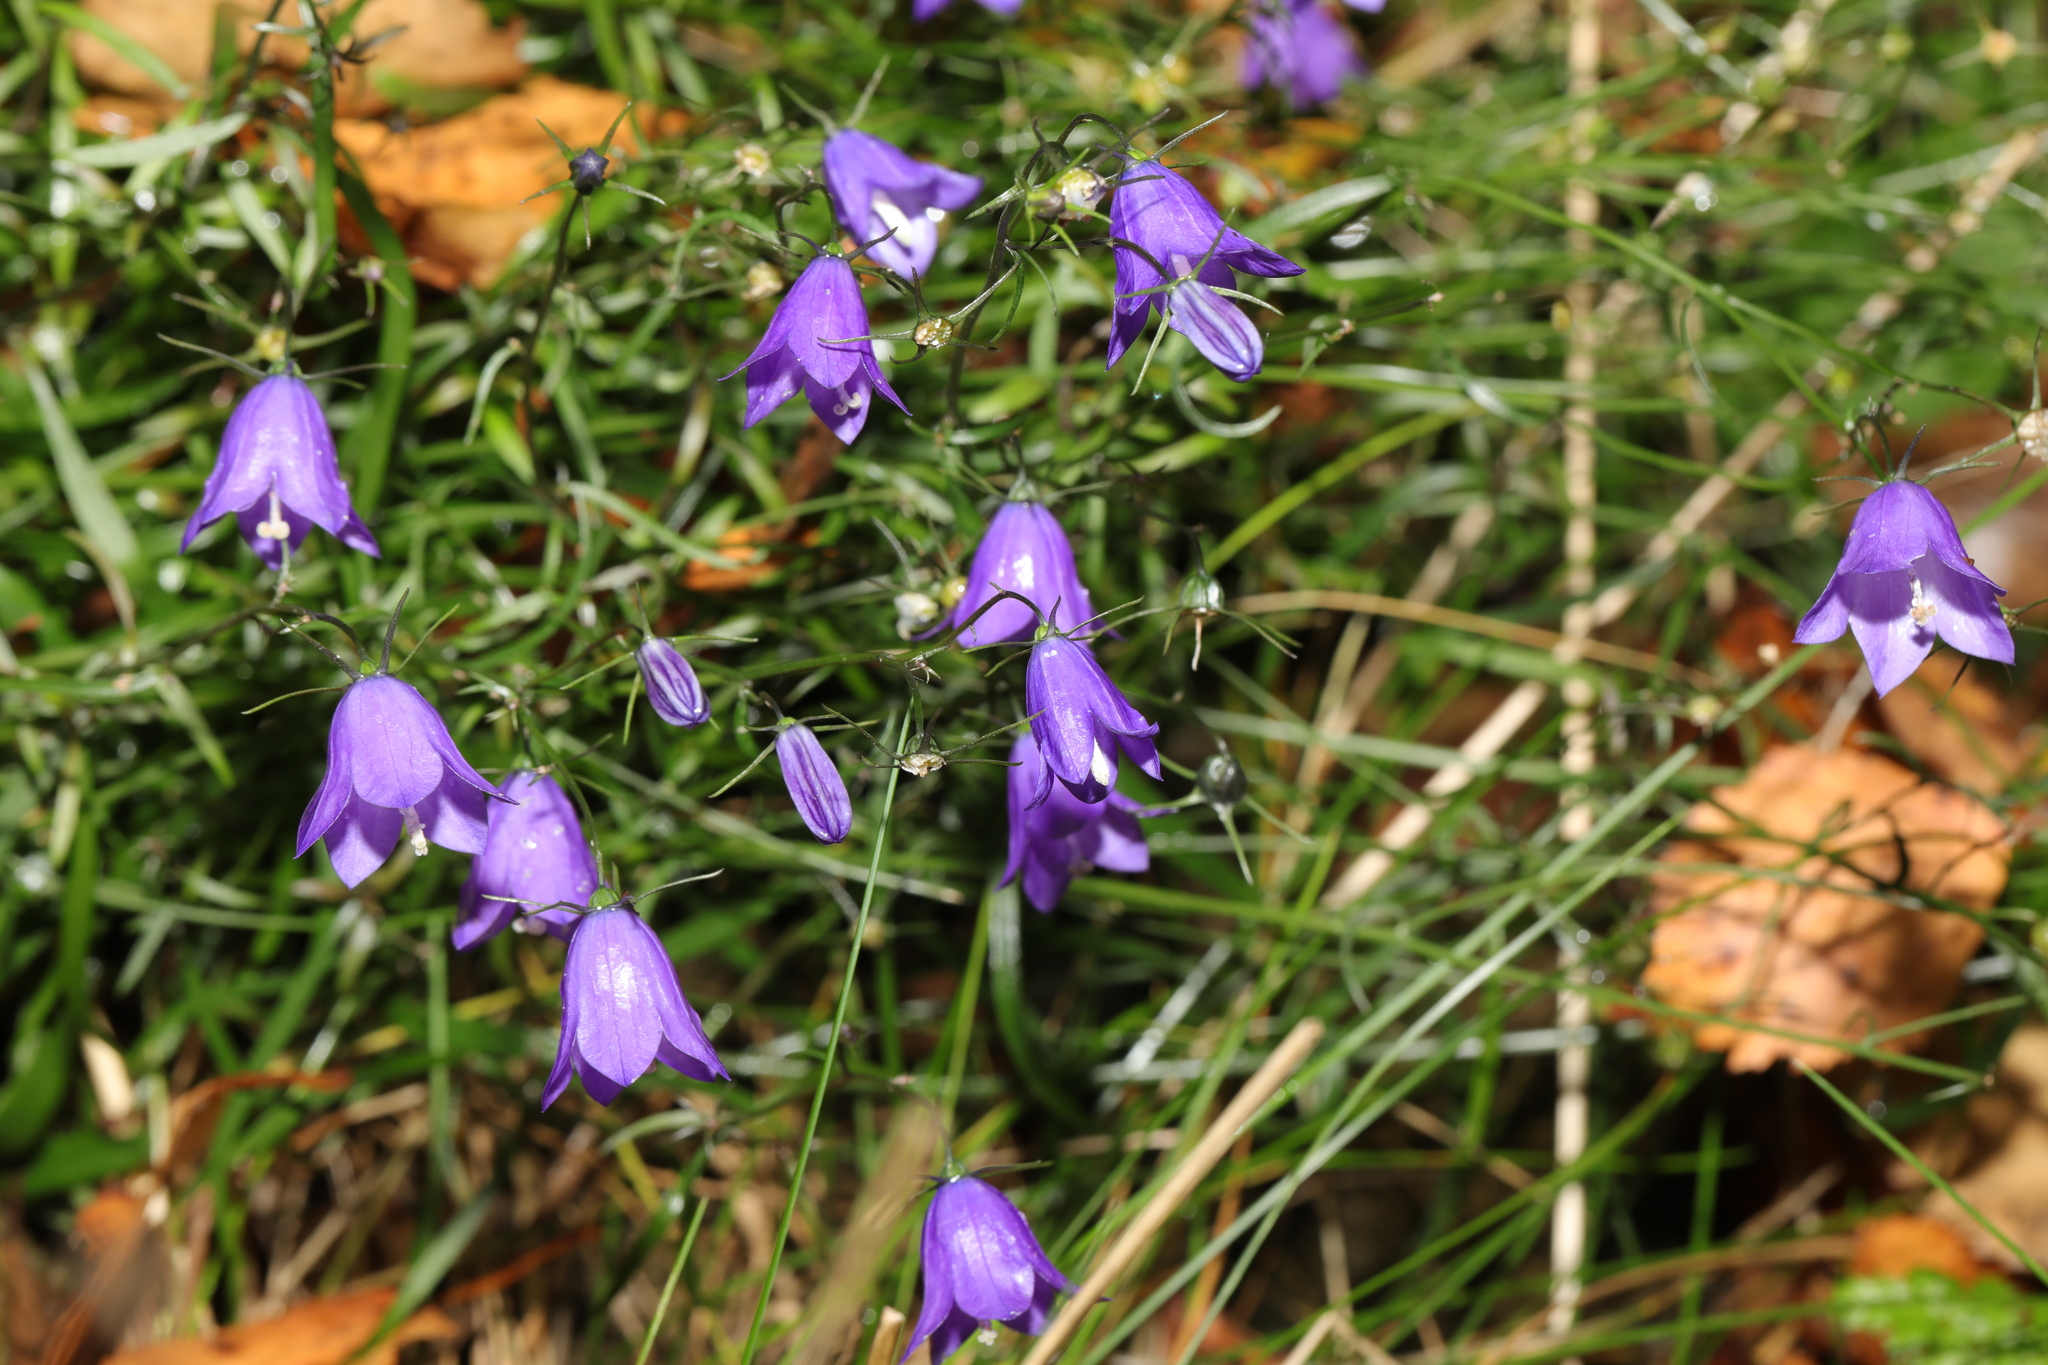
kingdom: Plantae
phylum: Tracheophyta
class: Magnoliopsida
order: Asterales
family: Campanulaceae
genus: Campanula
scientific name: Campanula rotundifolia
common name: Harebell
